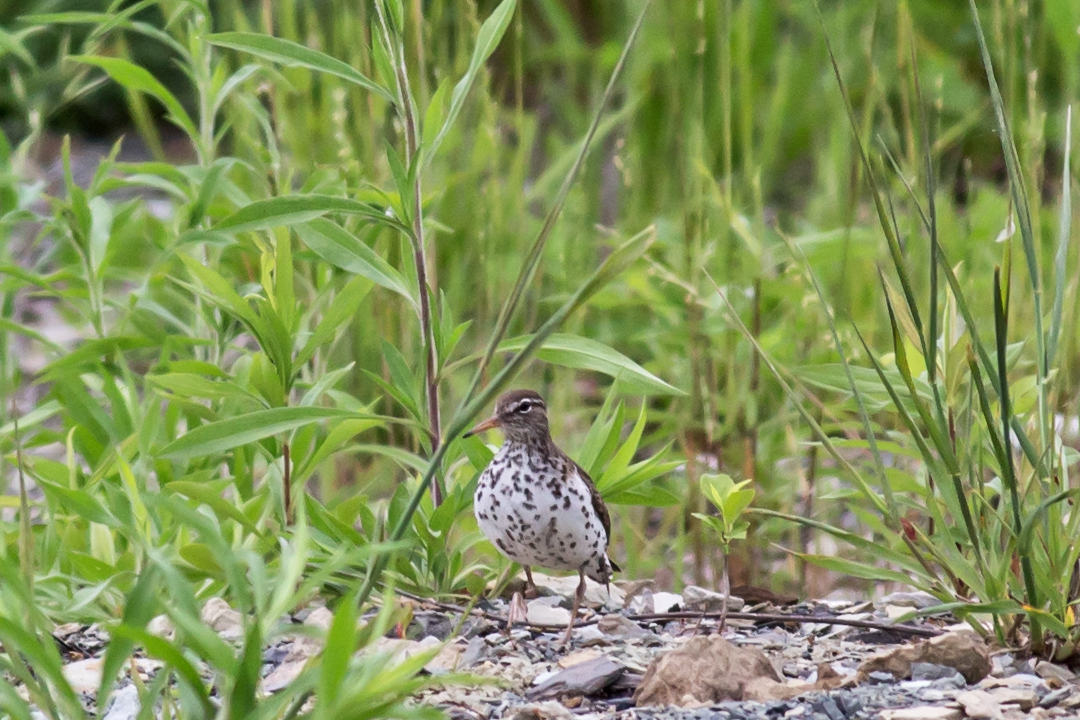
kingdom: Animalia
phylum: Chordata
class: Aves
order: Charadriiformes
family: Scolopacidae
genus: Actitis
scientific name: Actitis macularius
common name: Spotted sandpiper
